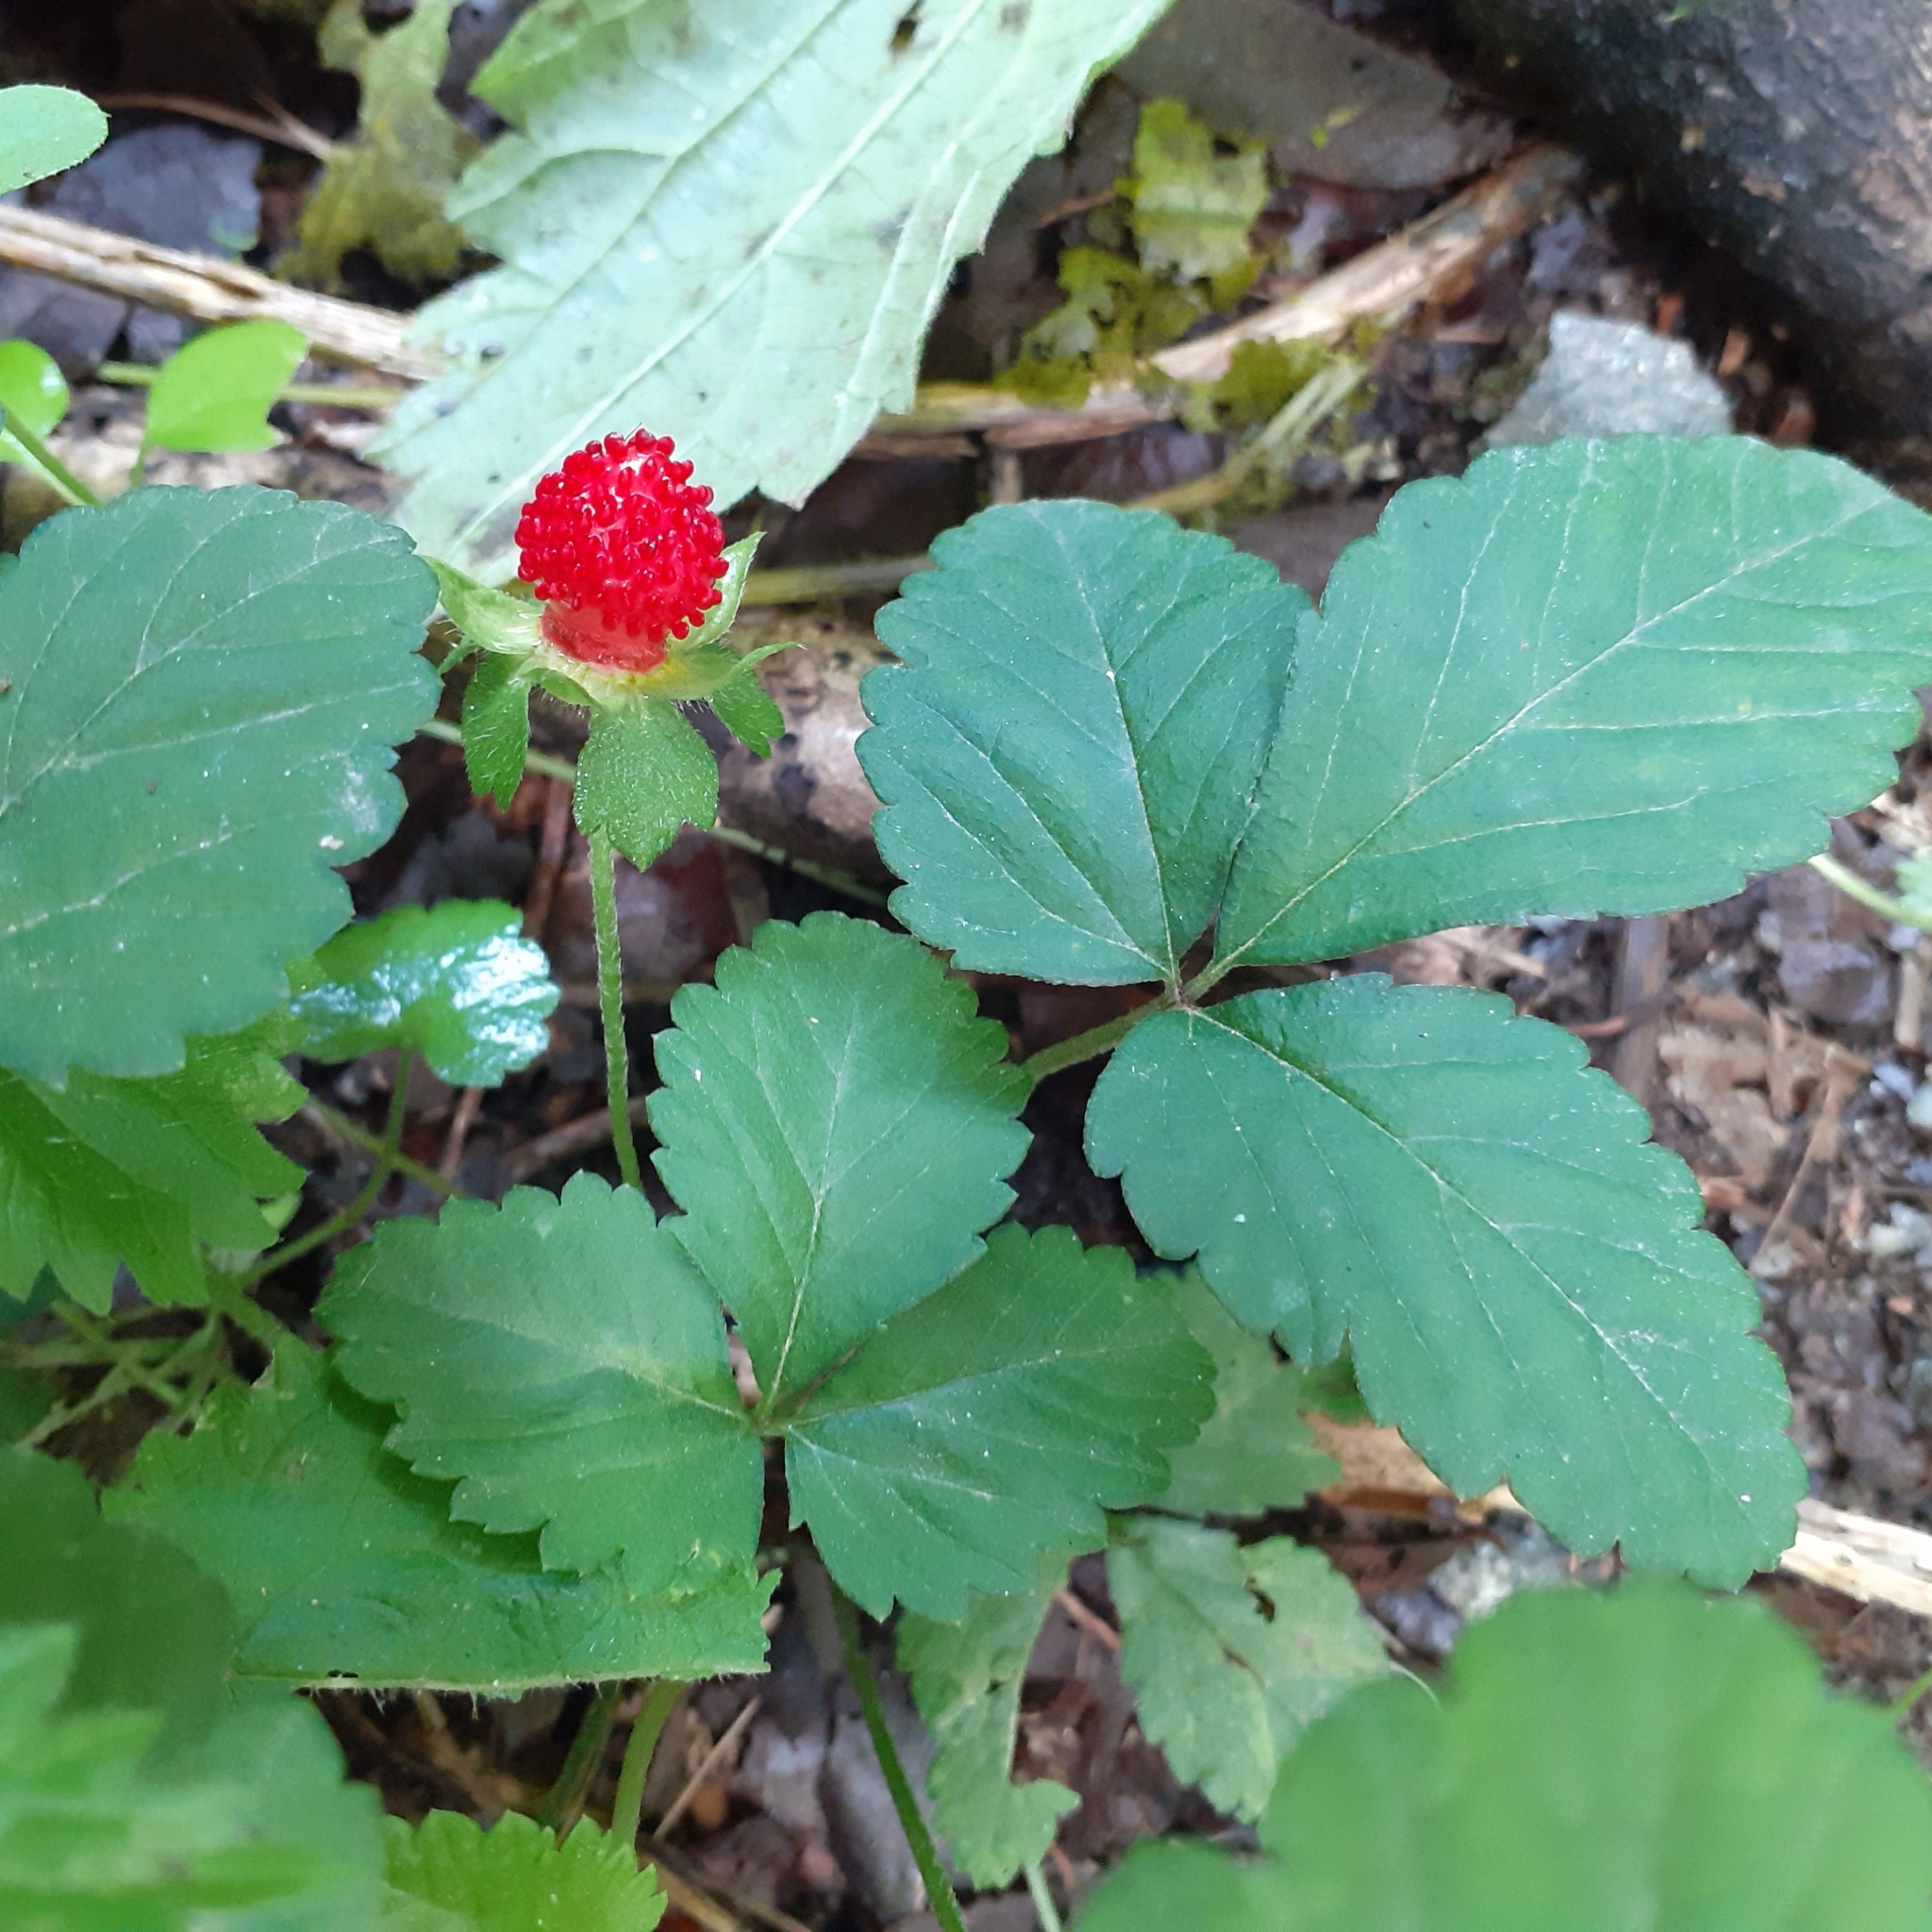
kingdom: Plantae
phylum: Tracheophyta
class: Magnoliopsida
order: Rosales
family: Rosaceae
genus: Potentilla
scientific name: Potentilla indica
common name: Yellow-flowered strawberry
